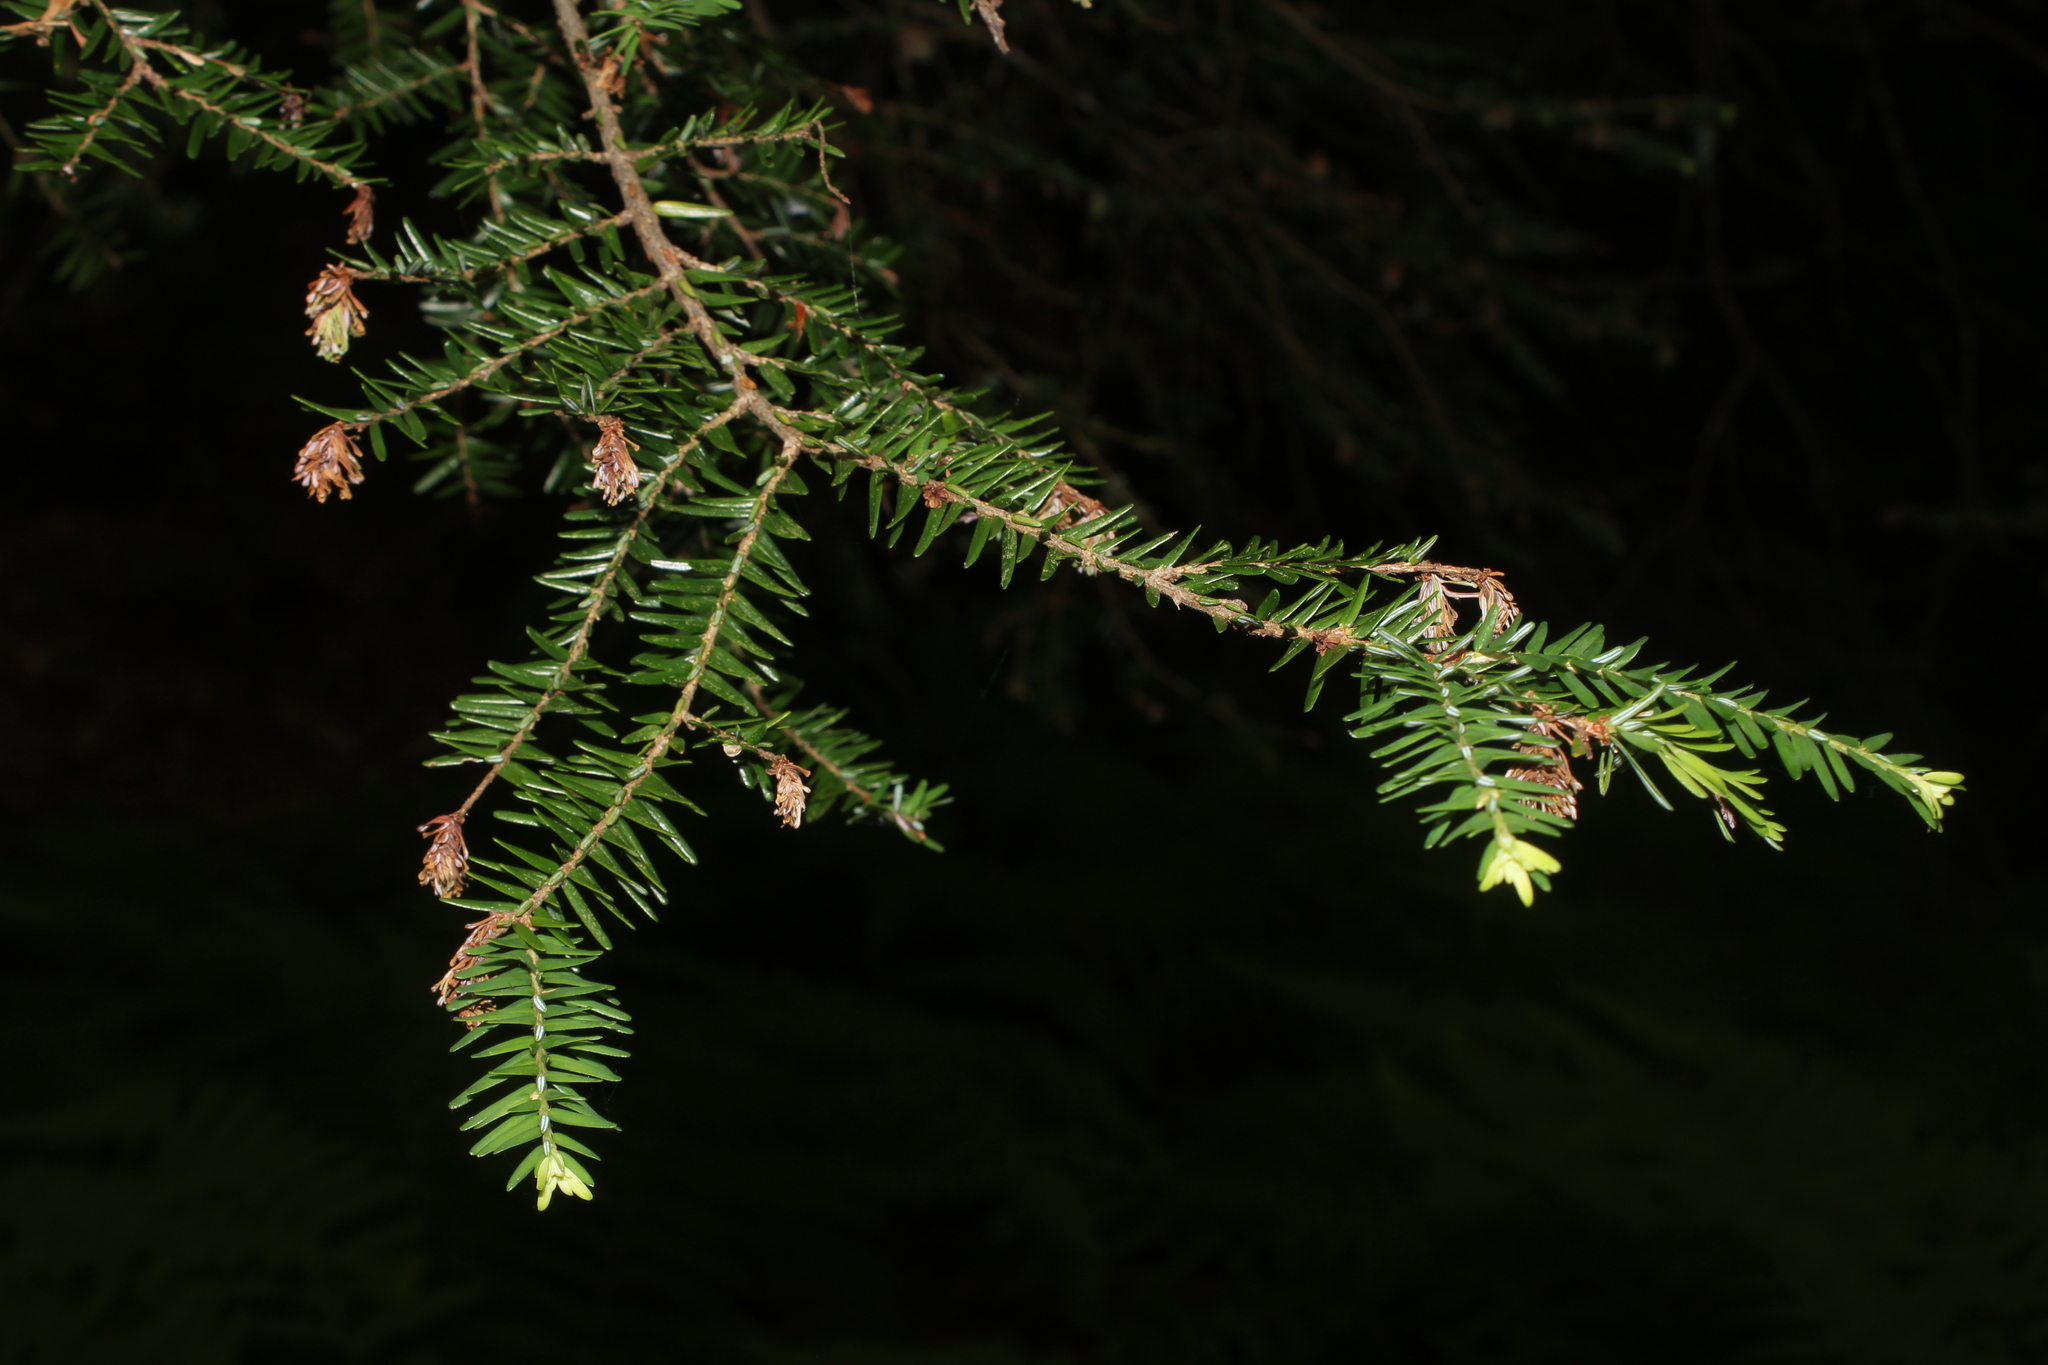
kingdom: Plantae
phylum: Tracheophyta
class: Pinopsida
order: Pinales
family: Pinaceae
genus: Tsuga
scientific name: Tsuga canadensis
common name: Eastern hemlock
